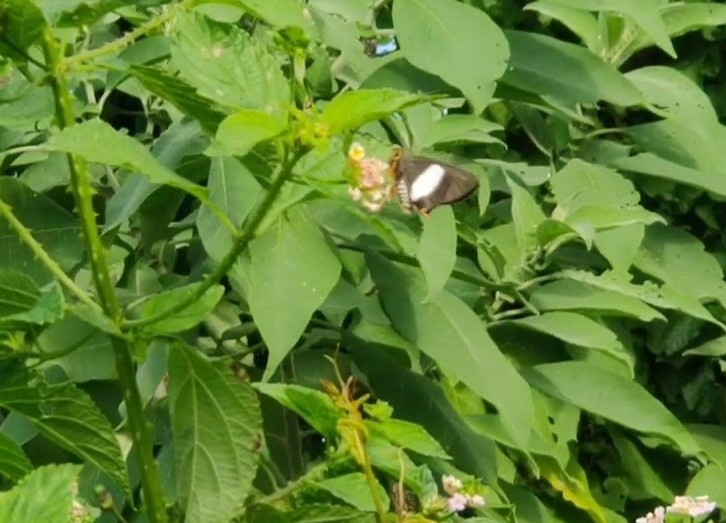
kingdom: Animalia
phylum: Arthropoda
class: Insecta
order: Lepidoptera
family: Hesperiidae
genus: Coeliades
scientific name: Coeliades forestan
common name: Striped policeman
